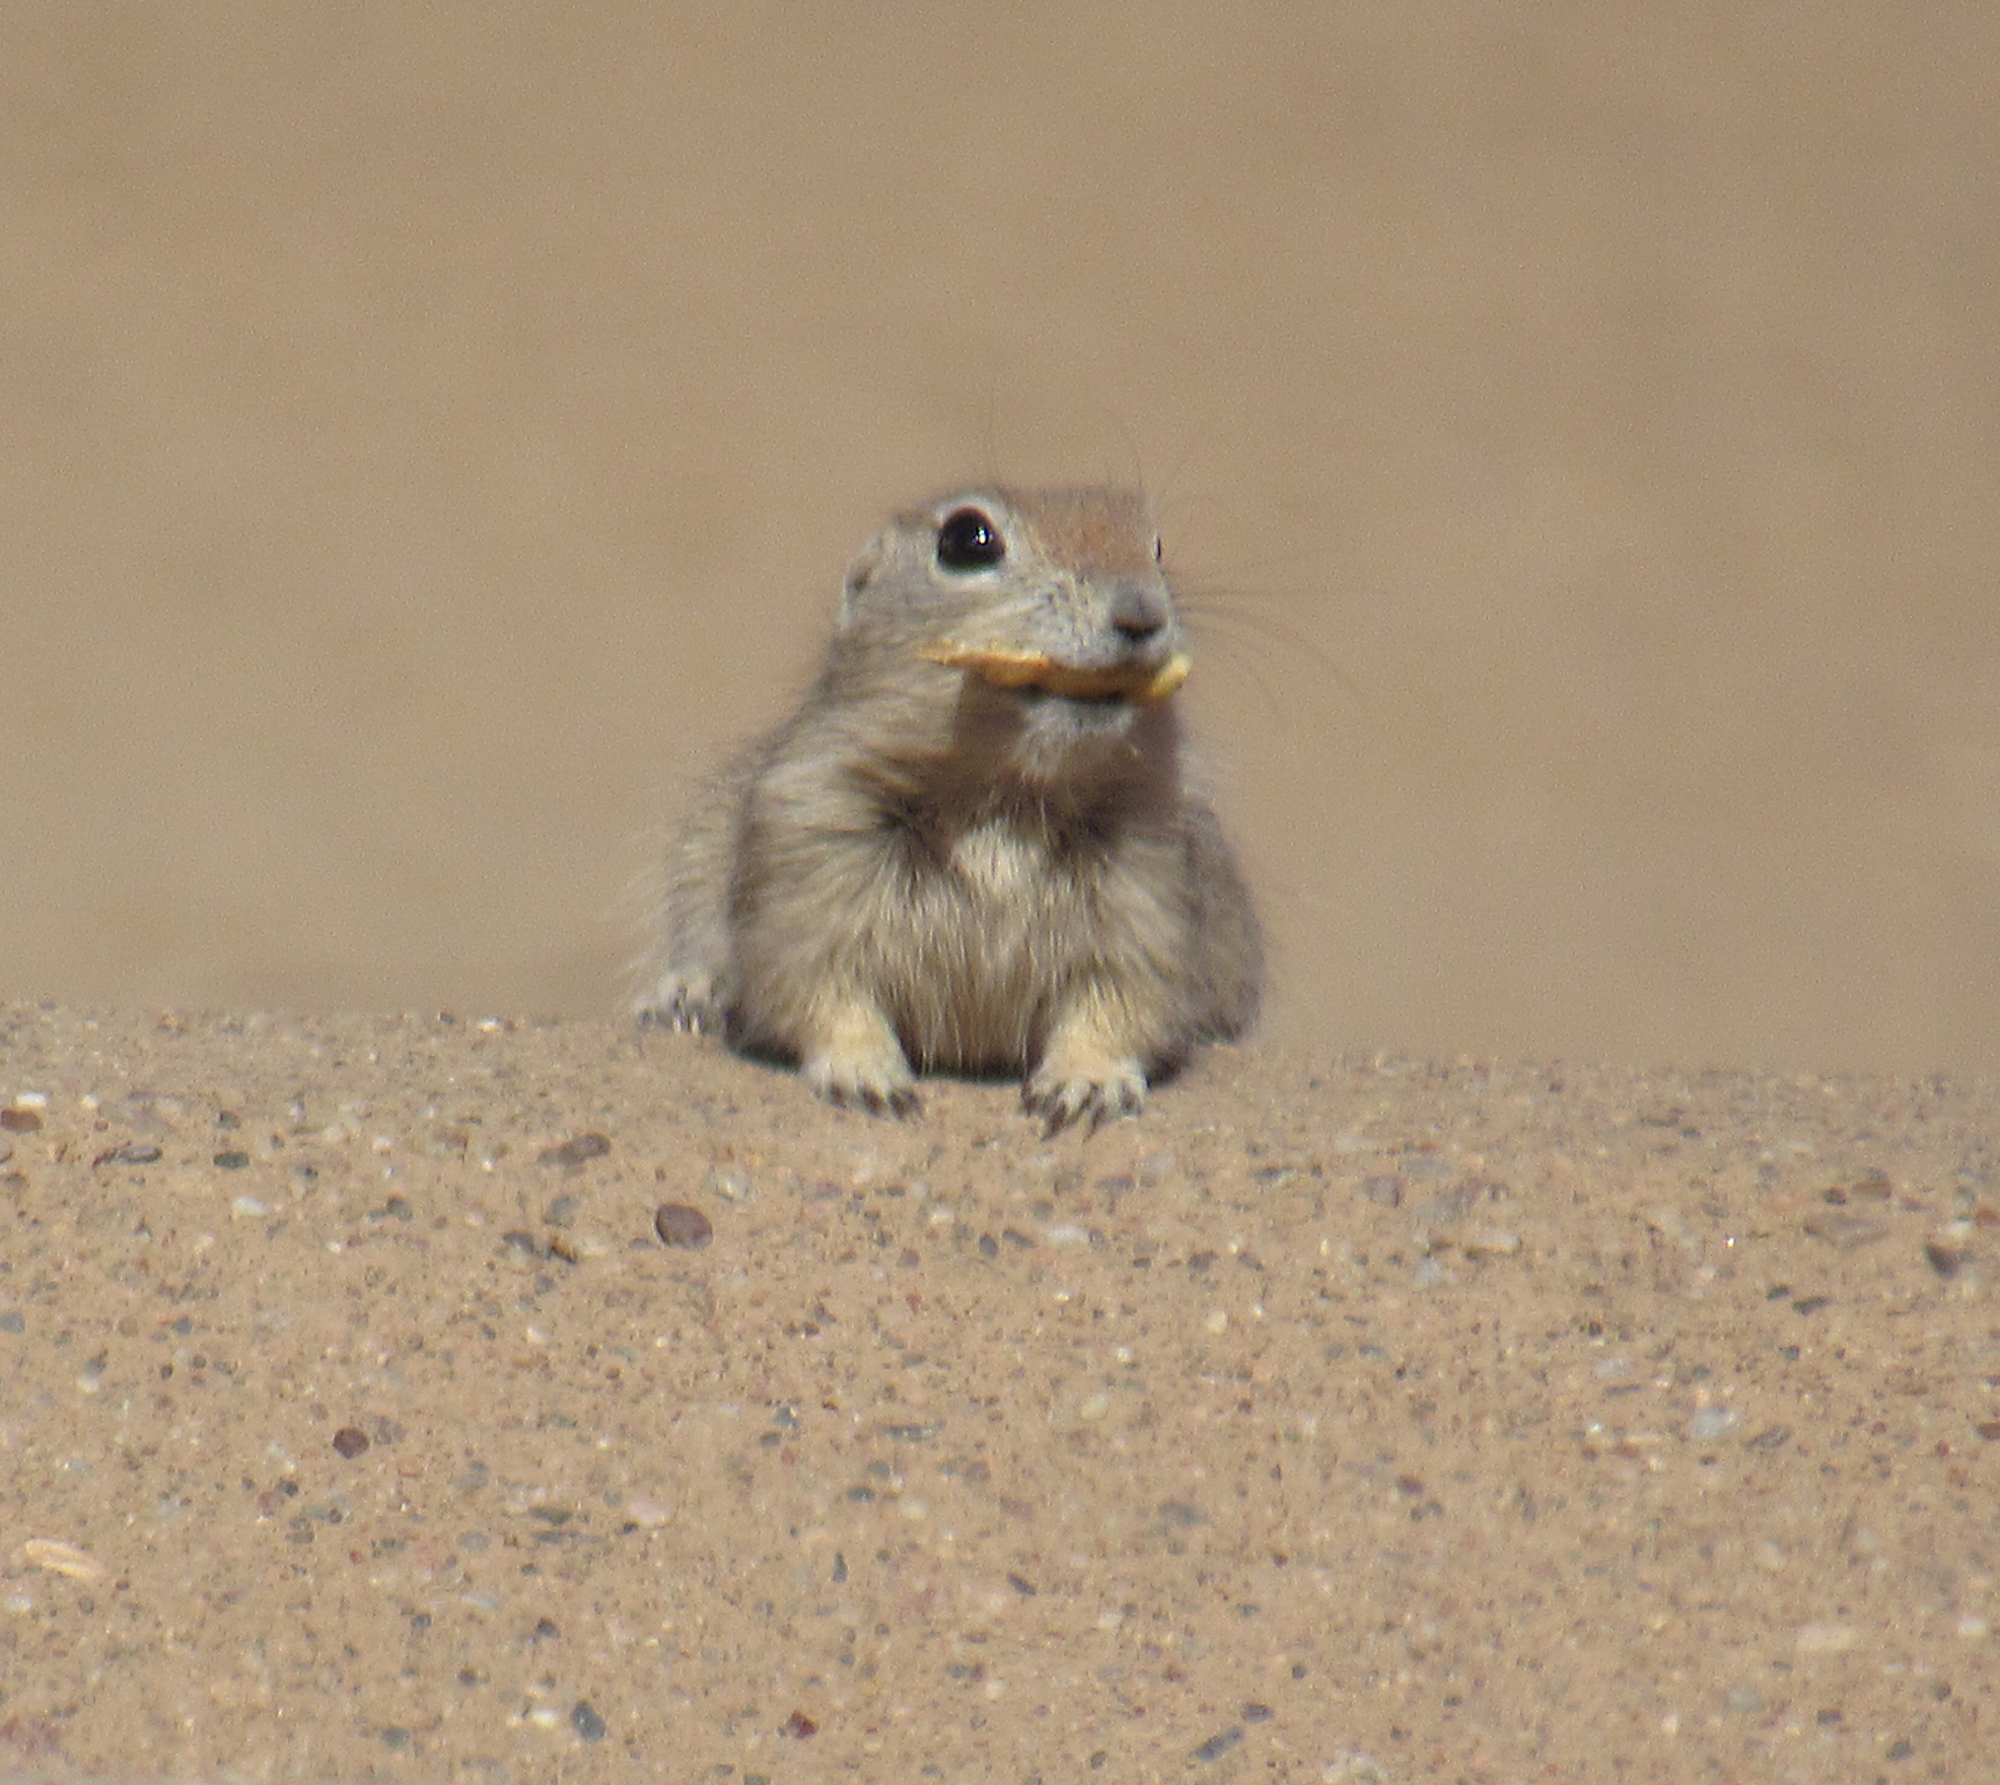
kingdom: Animalia
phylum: Chordata
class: Mammalia
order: Rodentia
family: Sciuridae
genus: Xerospermophilus
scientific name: Xerospermophilus tereticaudus
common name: Round-tailed ground squirrel
